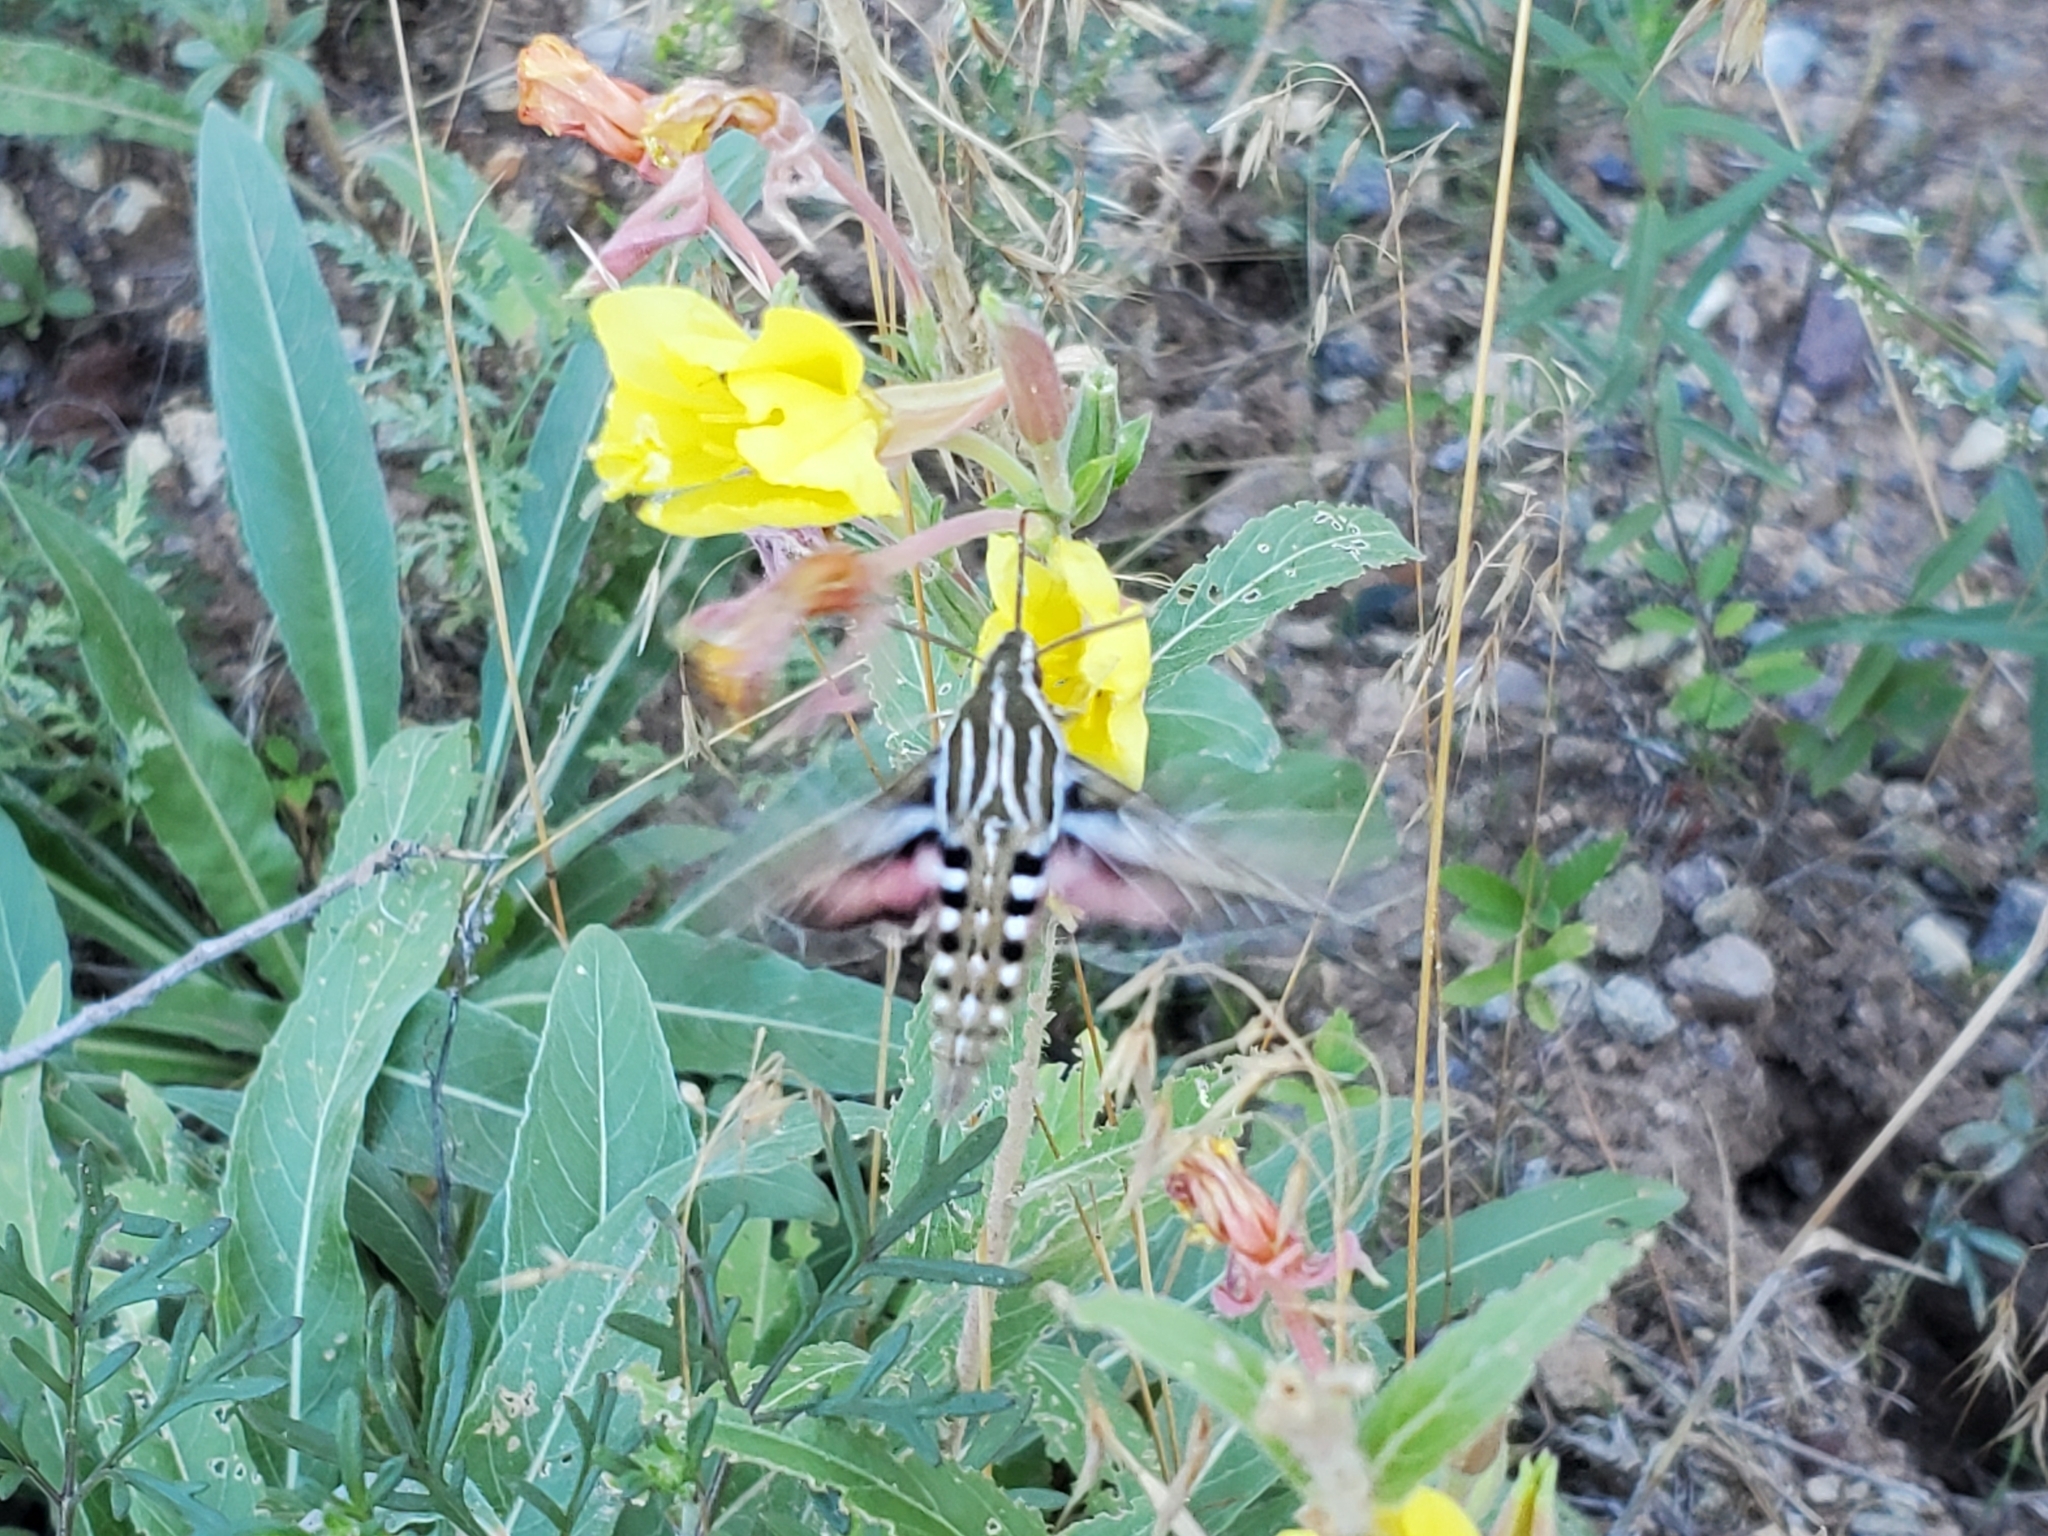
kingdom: Animalia
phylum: Arthropoda
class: Insecta
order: Lepidoptera
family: Sphingidae
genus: Hyles
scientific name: Hyles lineata
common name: White-lined sphinx
